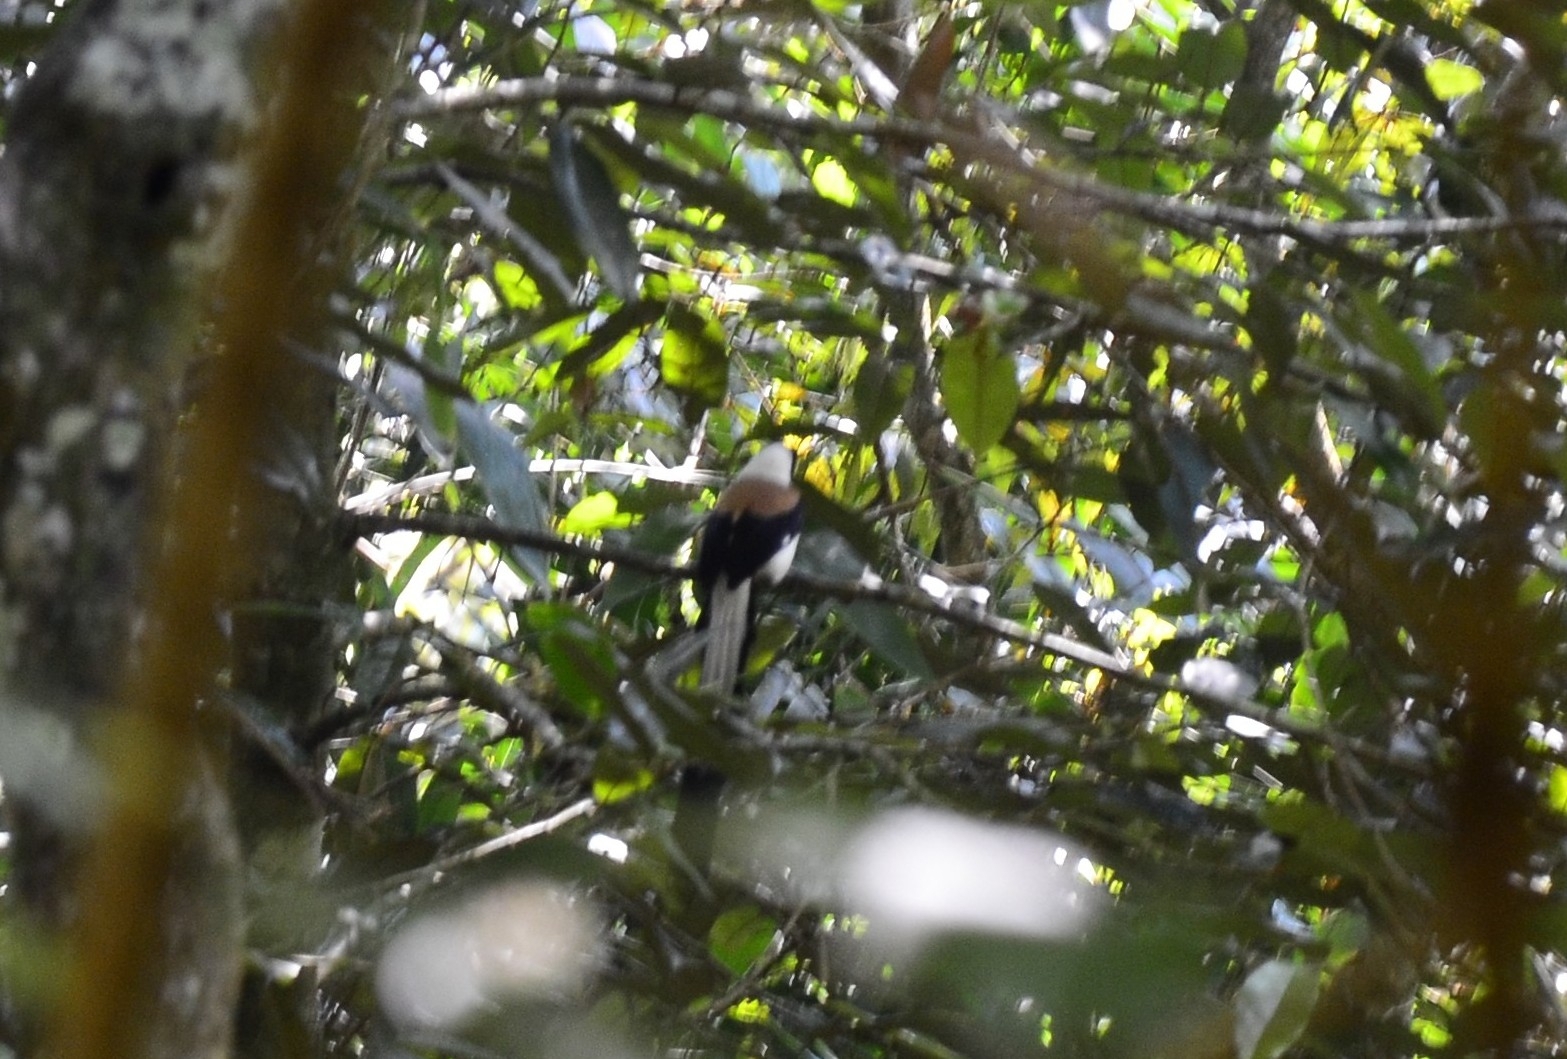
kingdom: Animalia
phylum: Chordata
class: Aves
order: Passeriformes
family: Corvidae
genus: Dendrocitta
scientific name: Dendrocitta leucogastra
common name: White-bellied treepie
